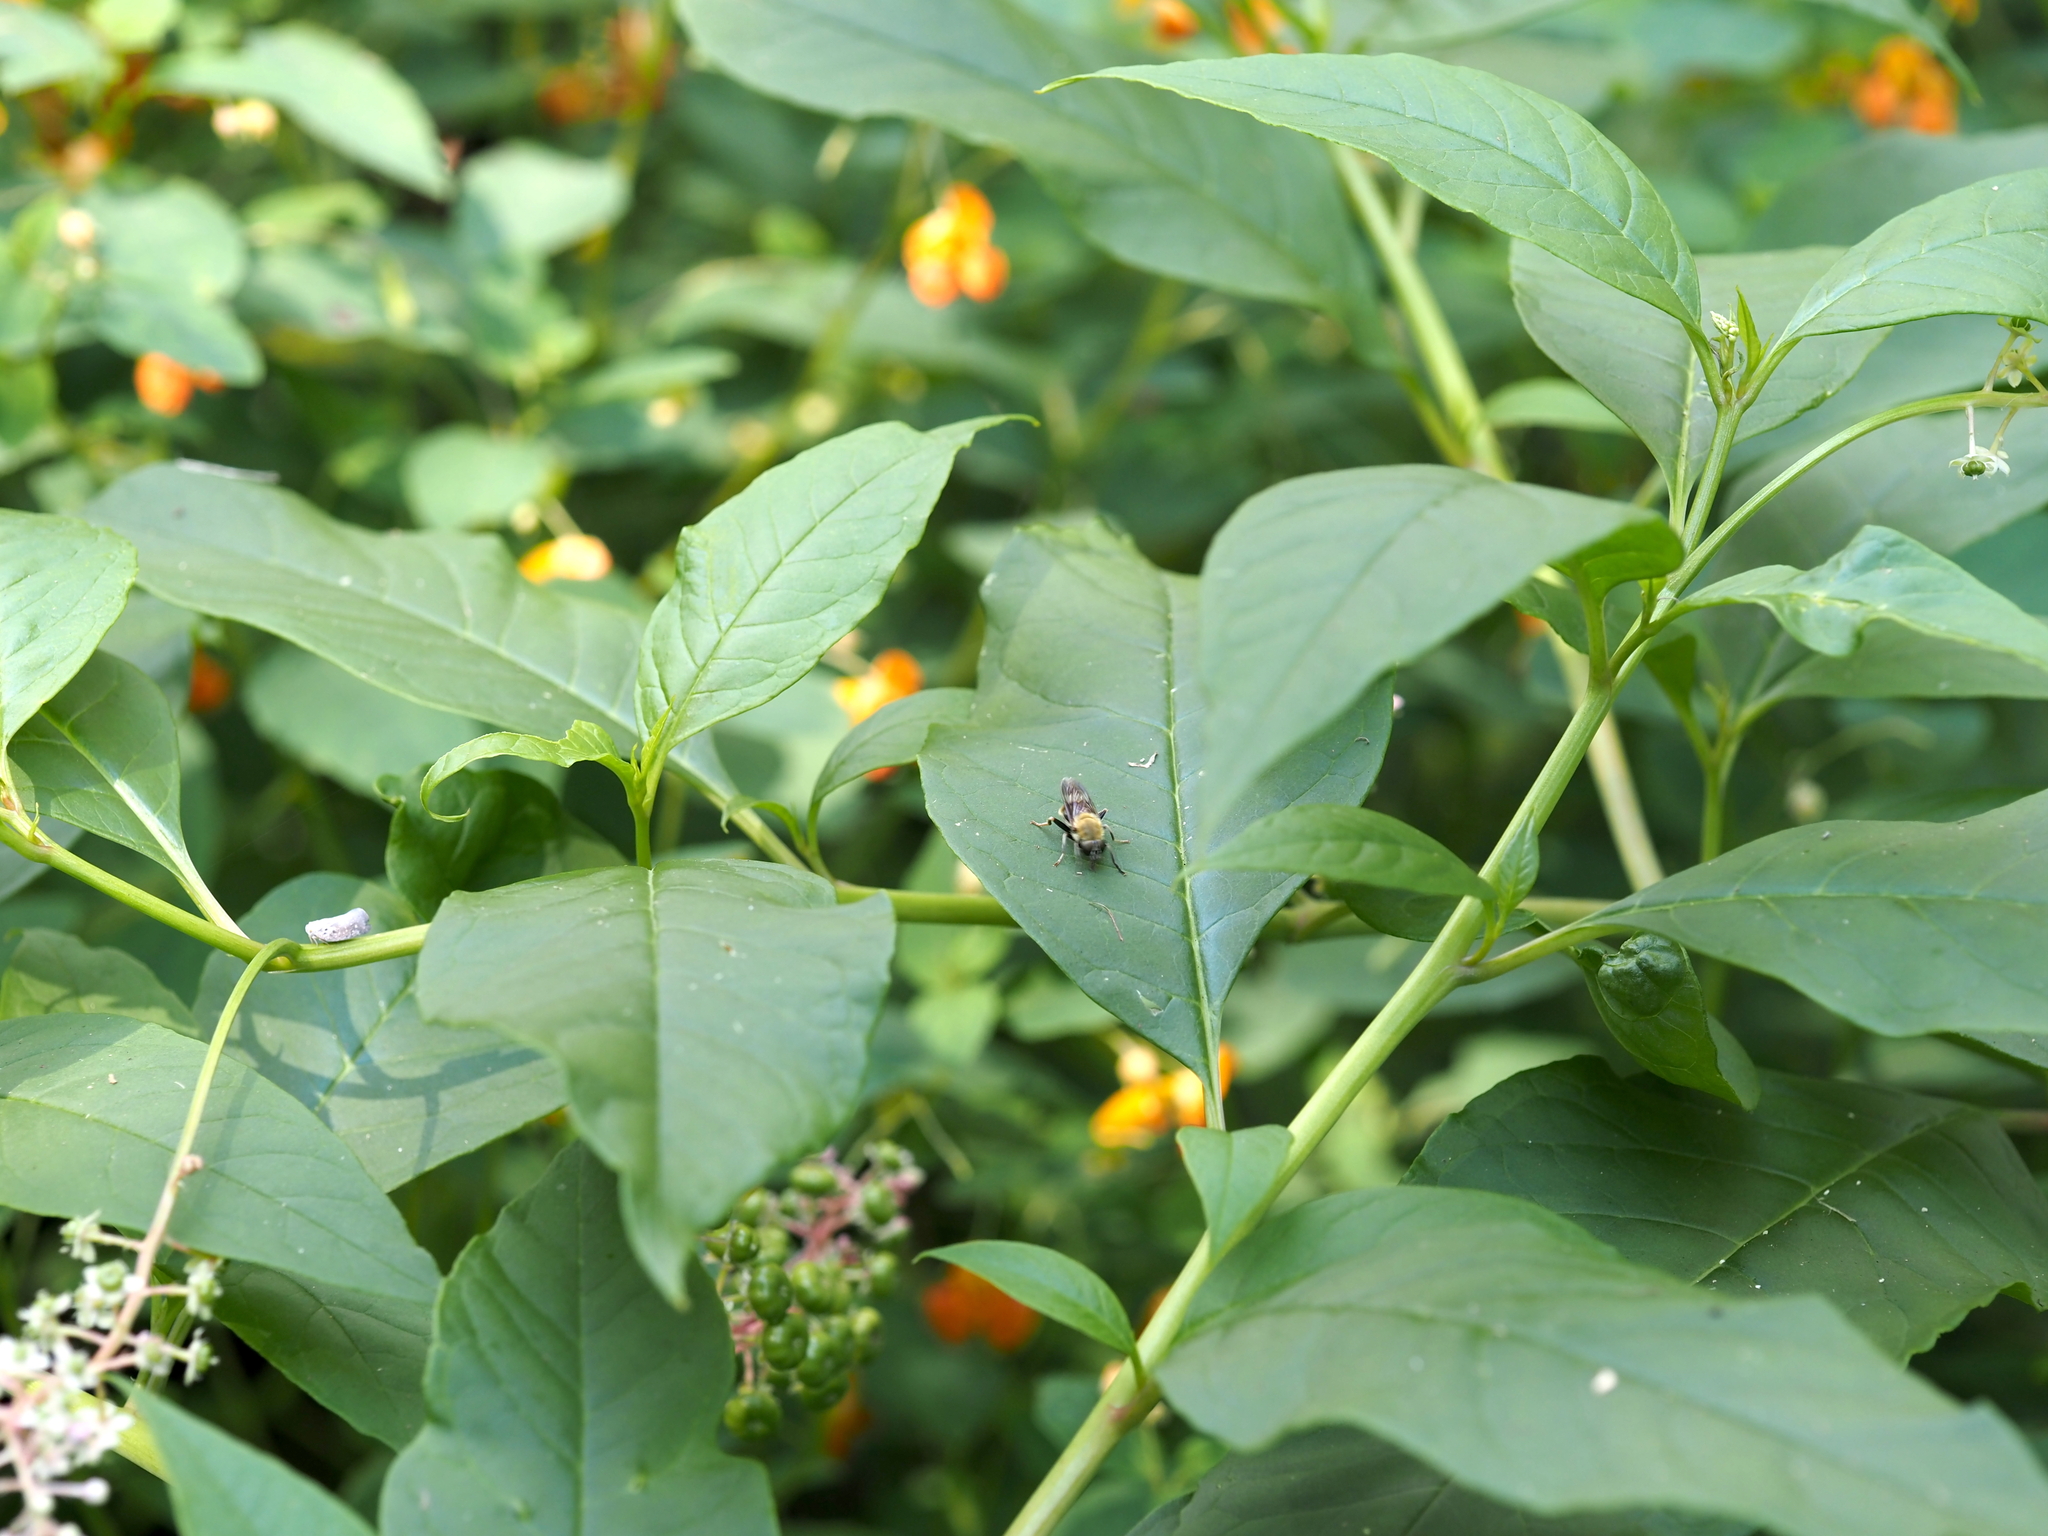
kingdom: Plantae
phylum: Tracheophyta
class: Magnoliopsida
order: Caryophyllales
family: Phytolaccaceae
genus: Phytolacca
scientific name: Phytolacca americana
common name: American pokeweed
